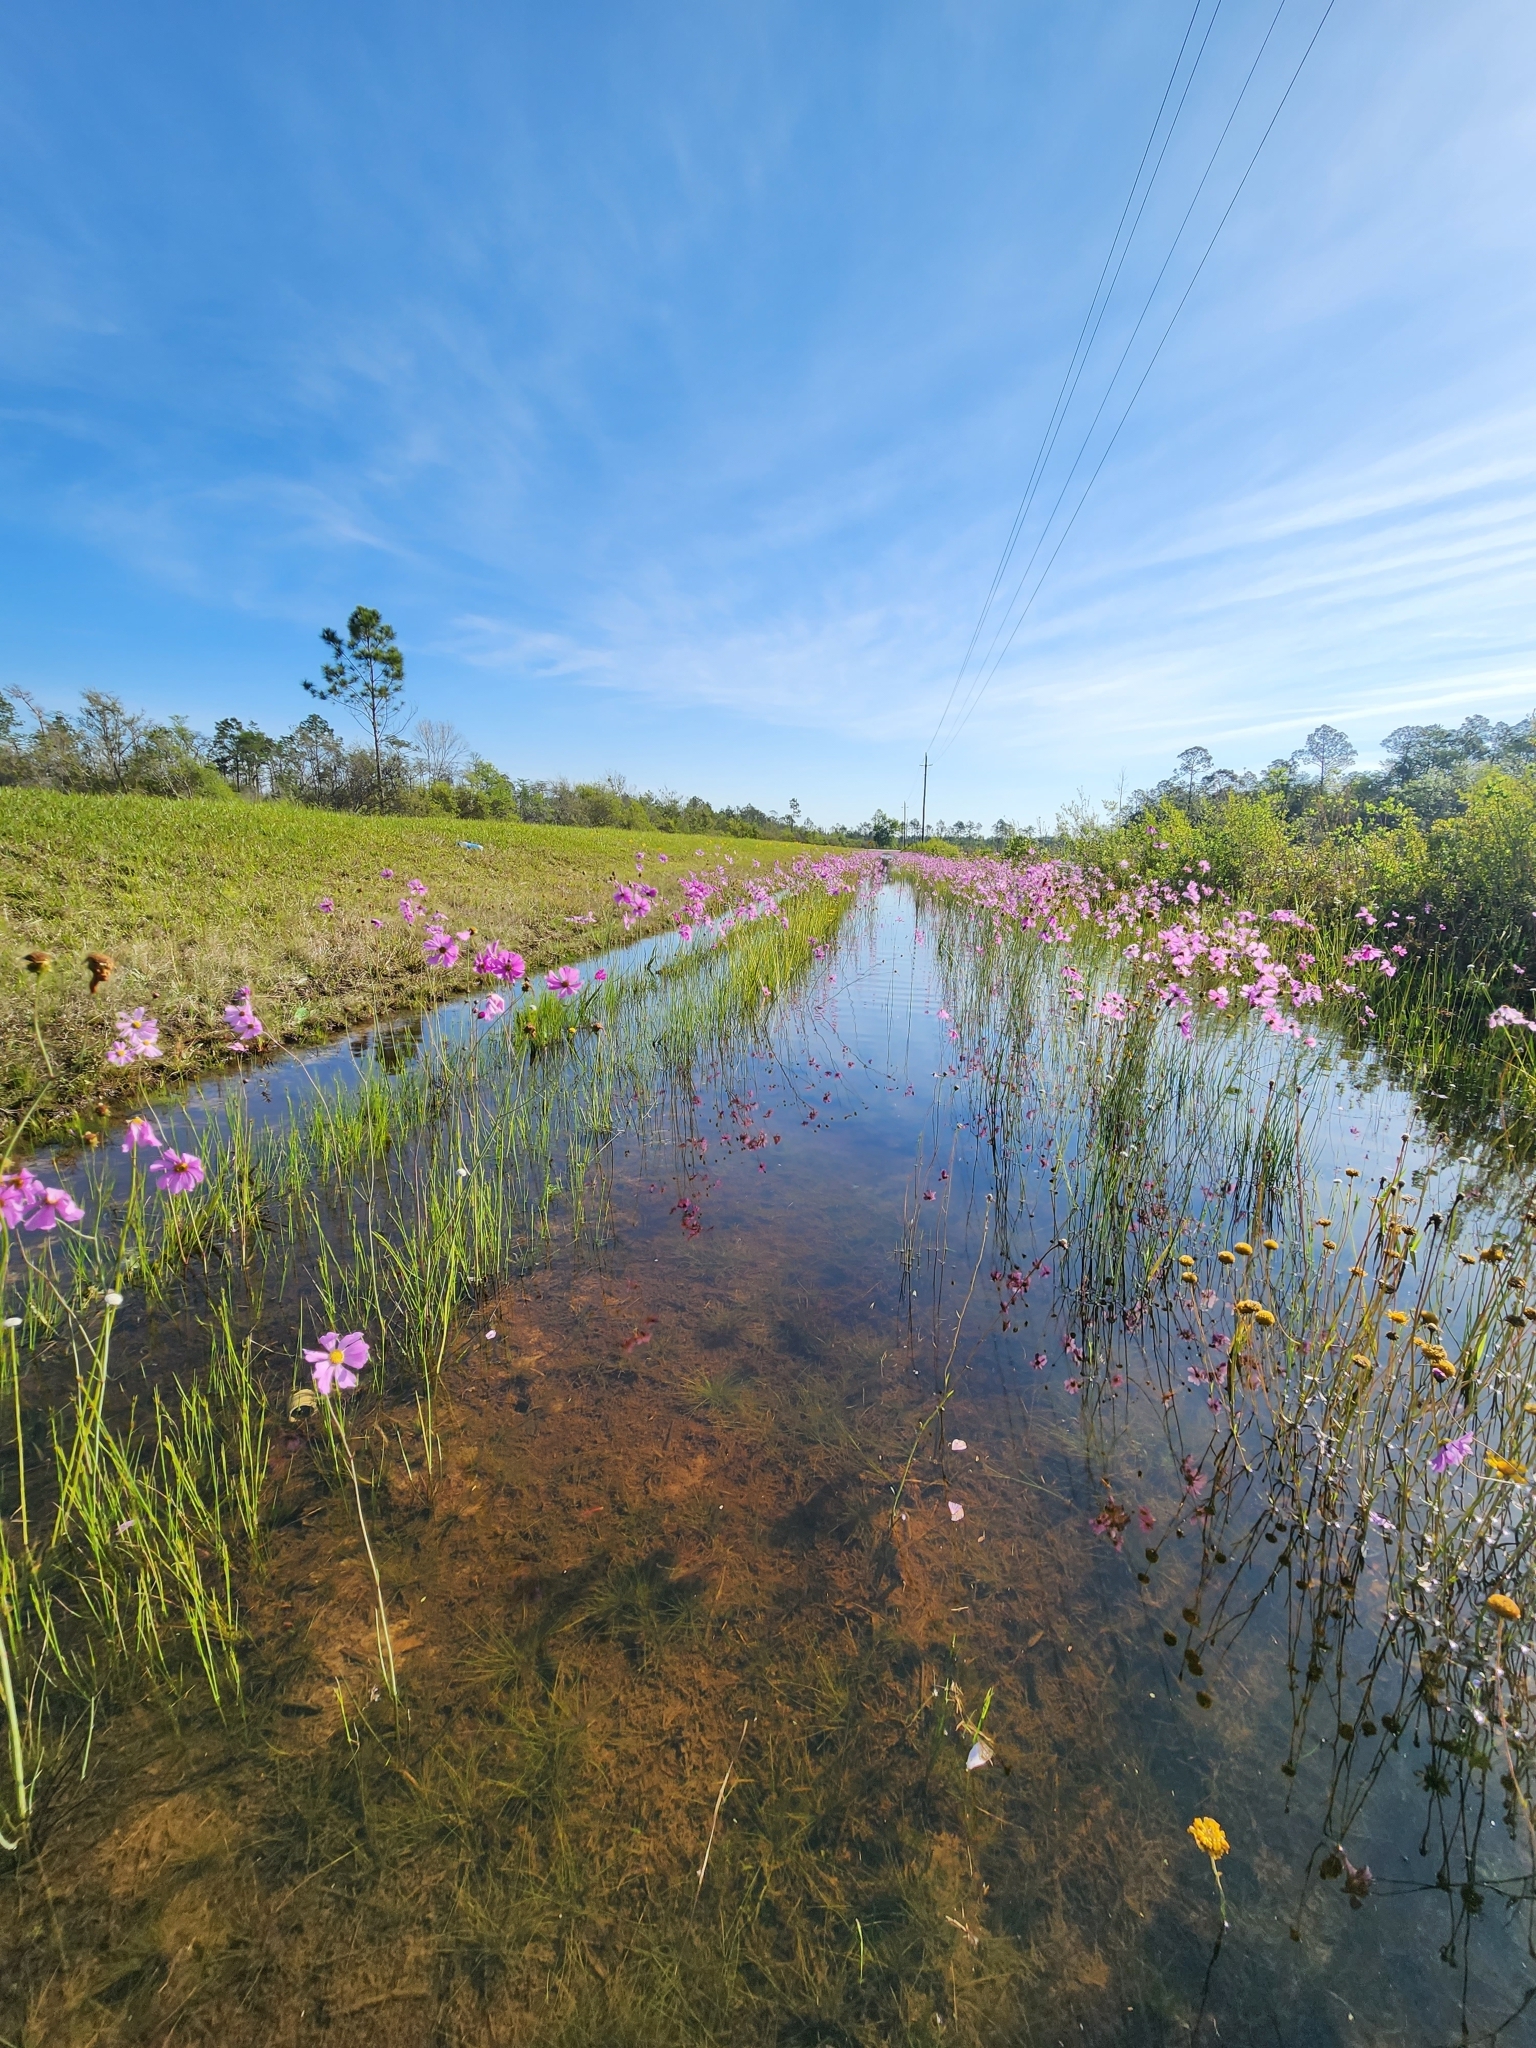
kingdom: Plantae
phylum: Tracheophyta
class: Magnoliopsida
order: Asterales
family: Asteraceae
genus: Coreopsis
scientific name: Coreopsis nudata
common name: Purple tickseed
